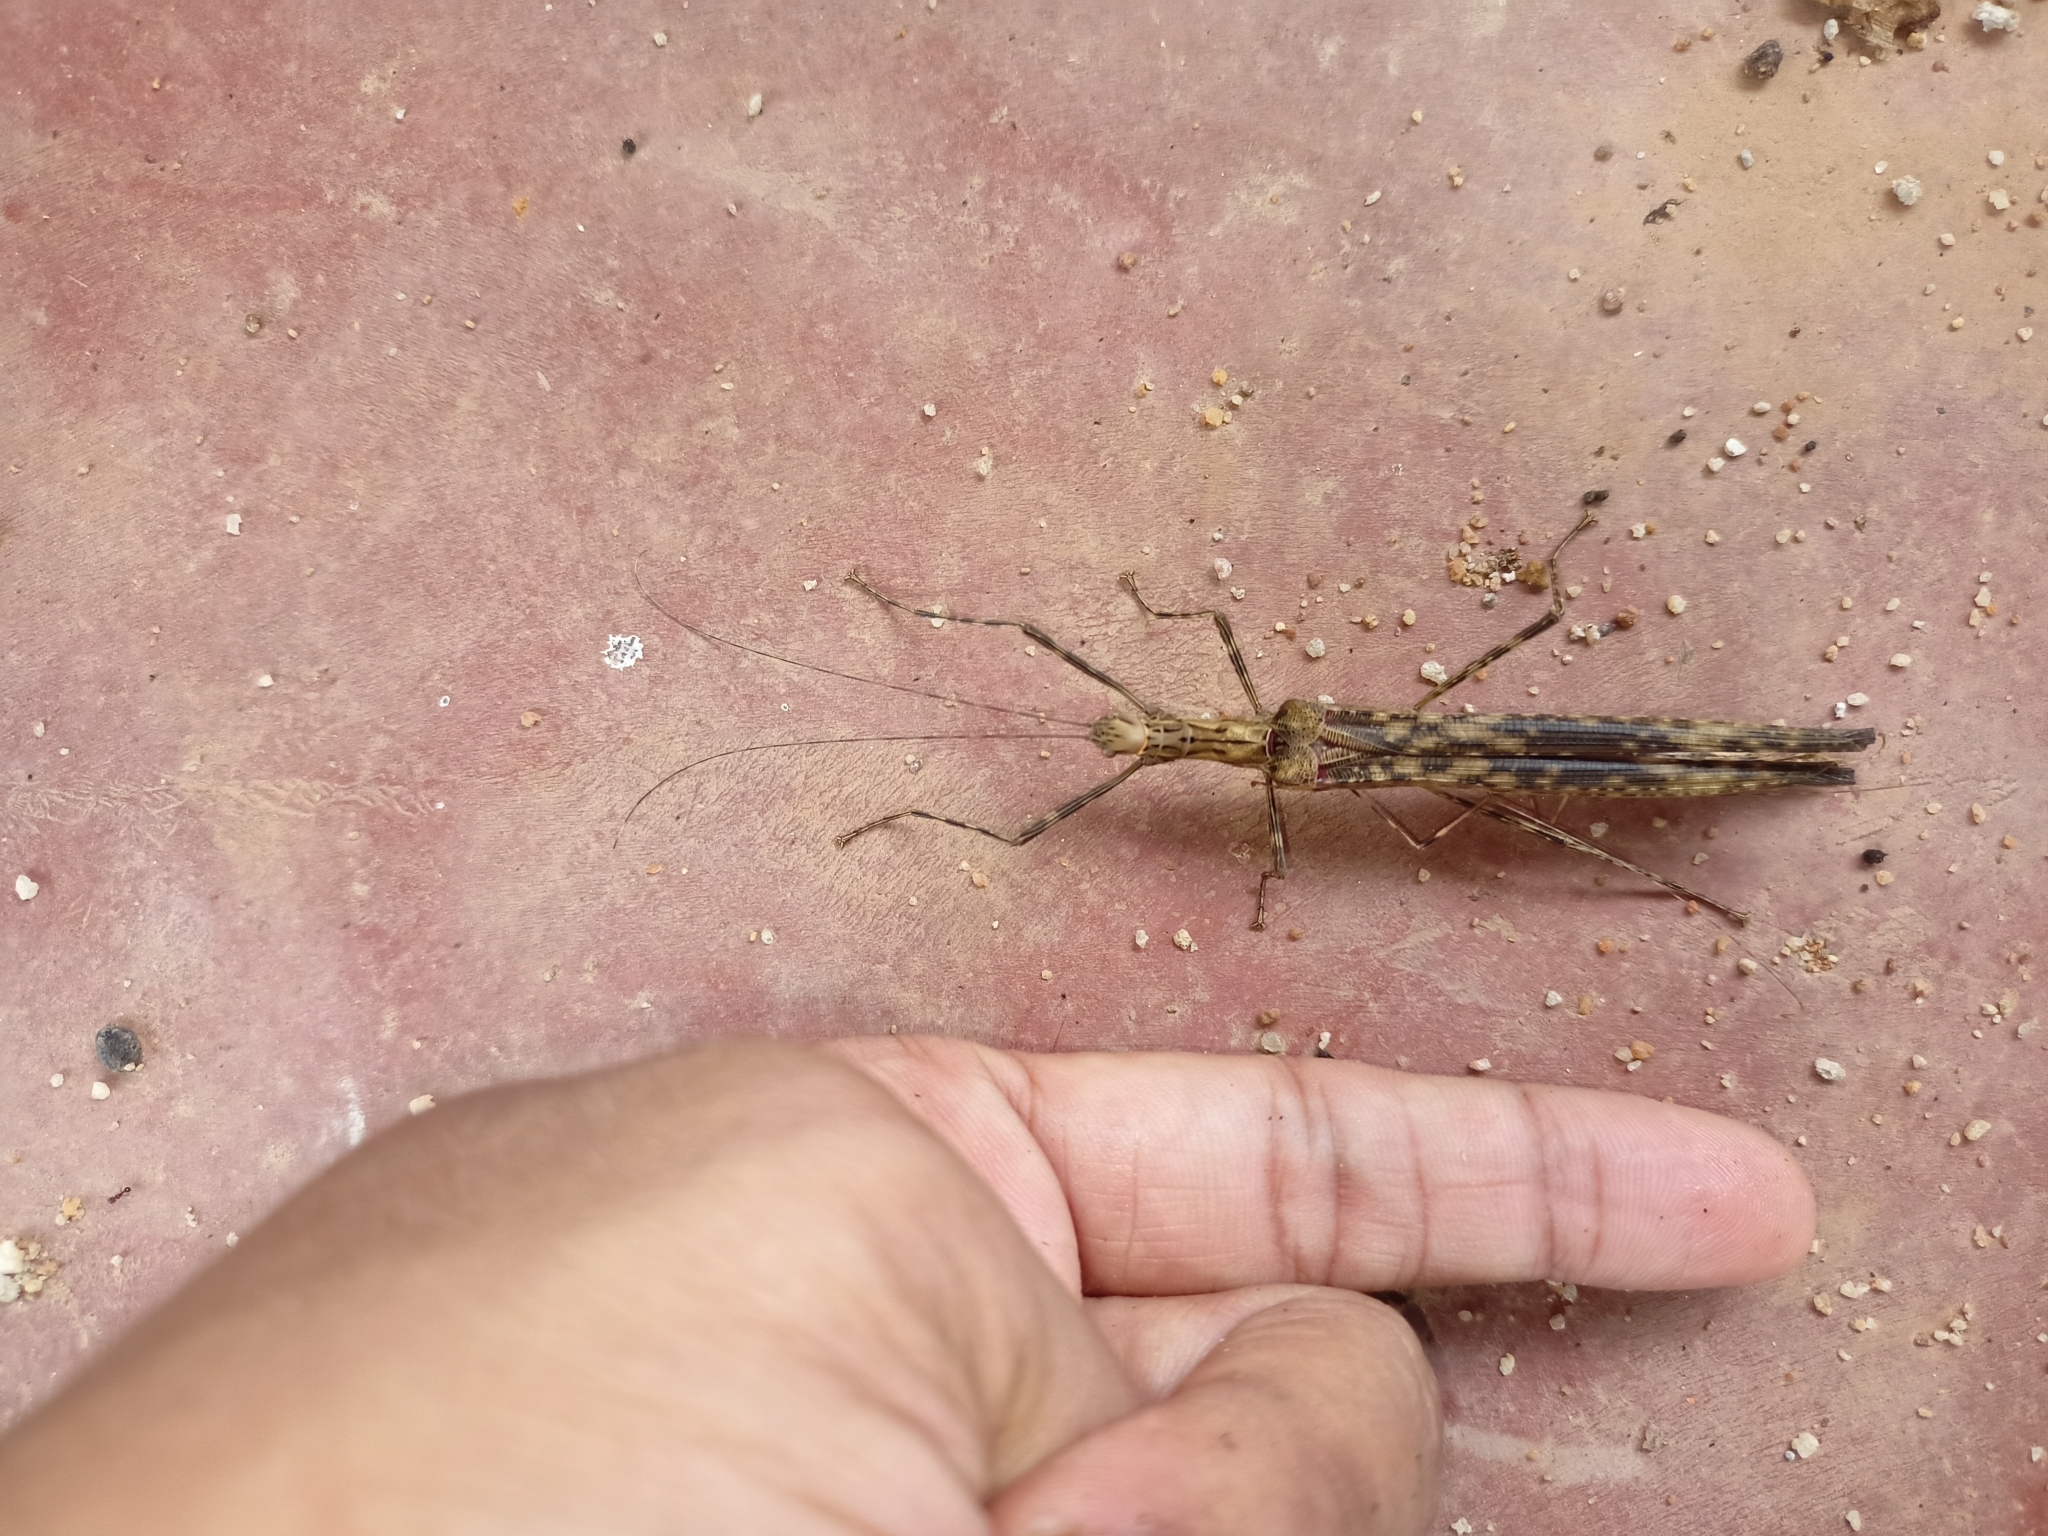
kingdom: Animalia
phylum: Arthropoda
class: Insecta
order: Phasmida
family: Lonchodidae
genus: Trachythorax
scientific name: Trachythorax illaesa
